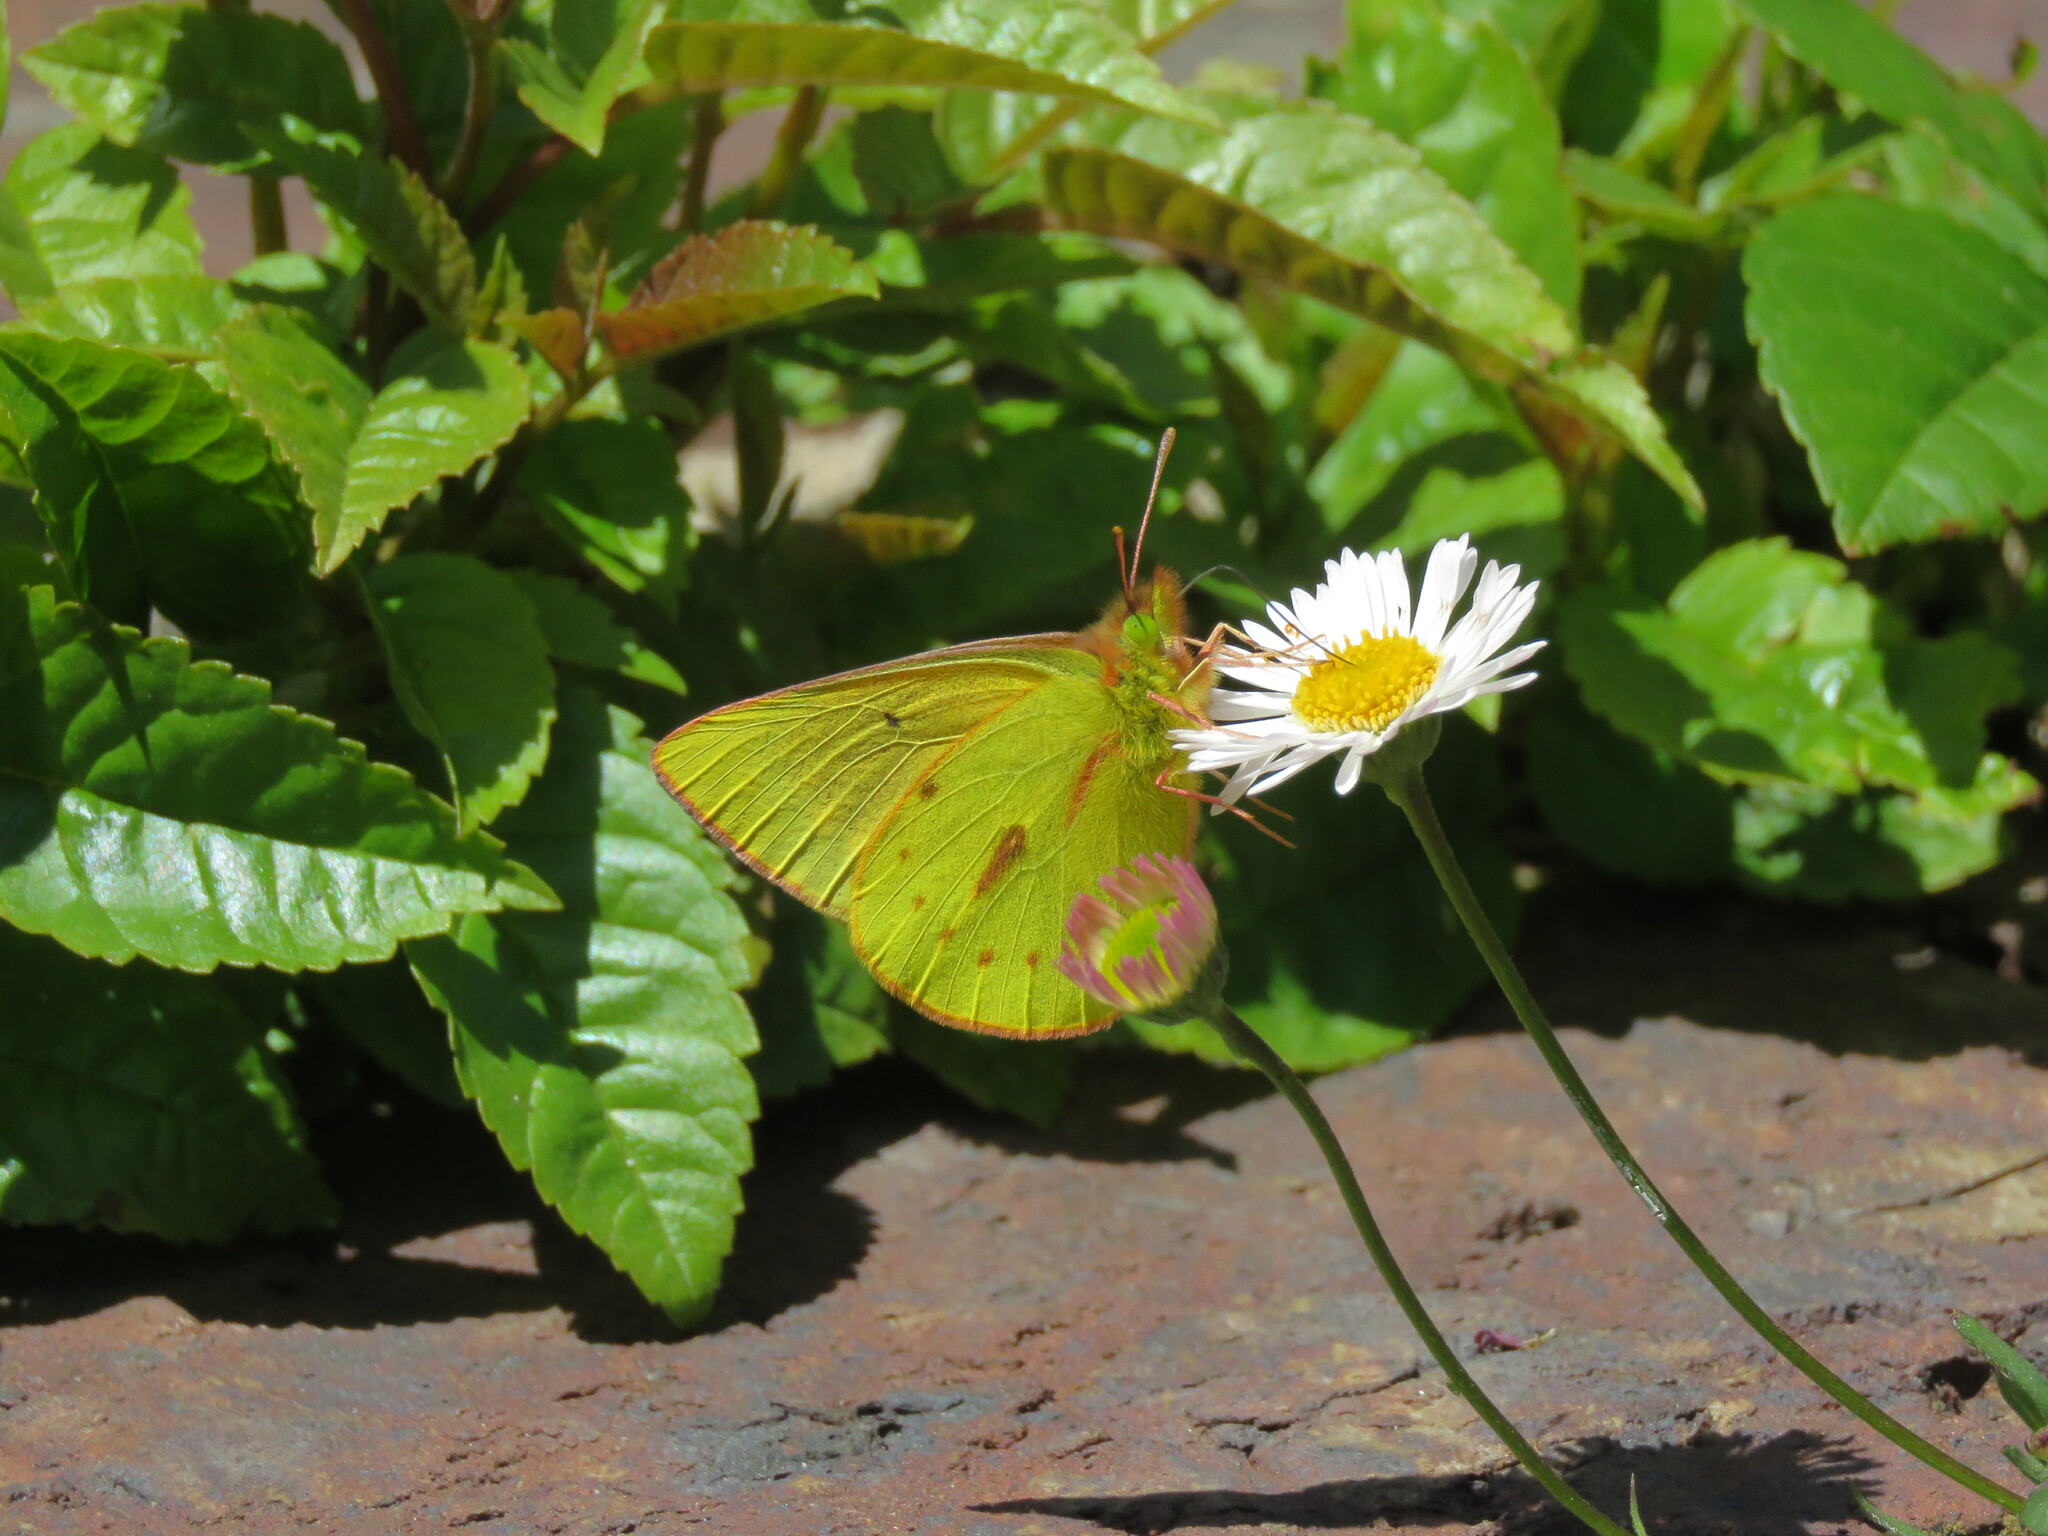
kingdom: Animalia
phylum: Arthropoda
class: Insecta
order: Lepidoptera
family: Pieridae
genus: Colias
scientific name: Colias dimera
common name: Dimera sulphur
